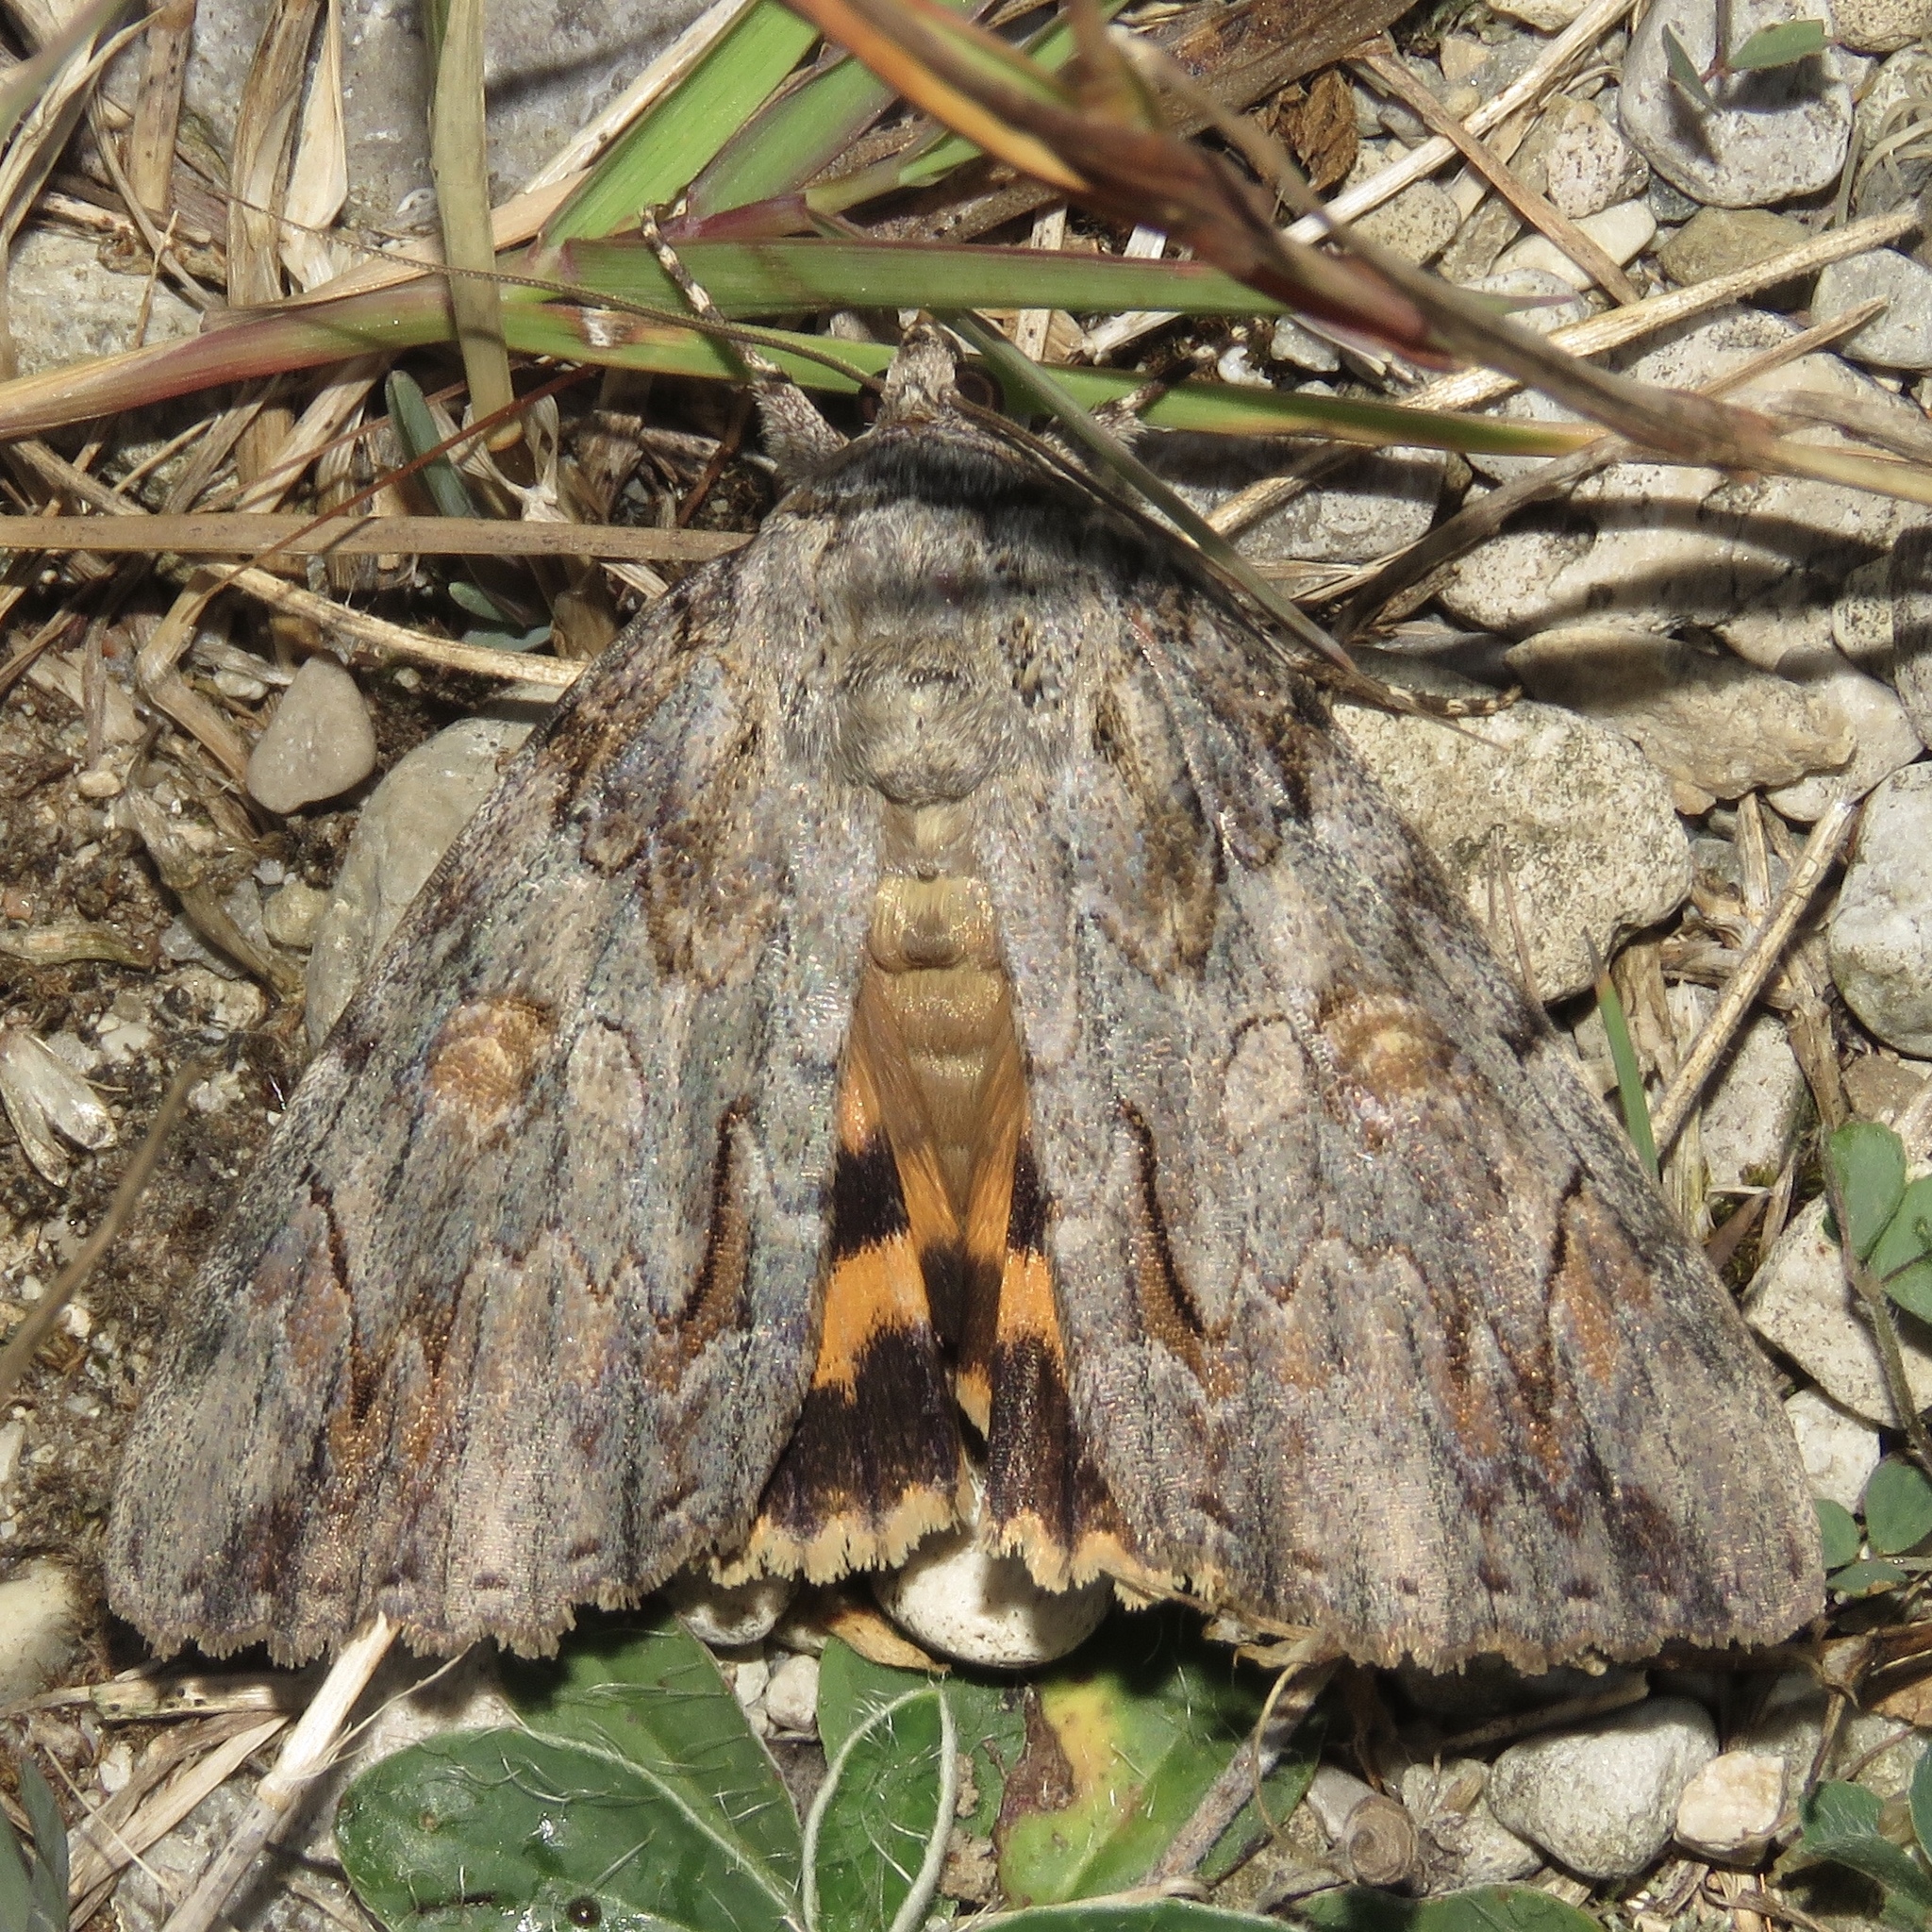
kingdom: Animalia
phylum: Arthropoda
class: Insecta
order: Lepidoptera
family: Erebidae
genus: Catocala
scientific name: Catocala neogama
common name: Bride underwing
